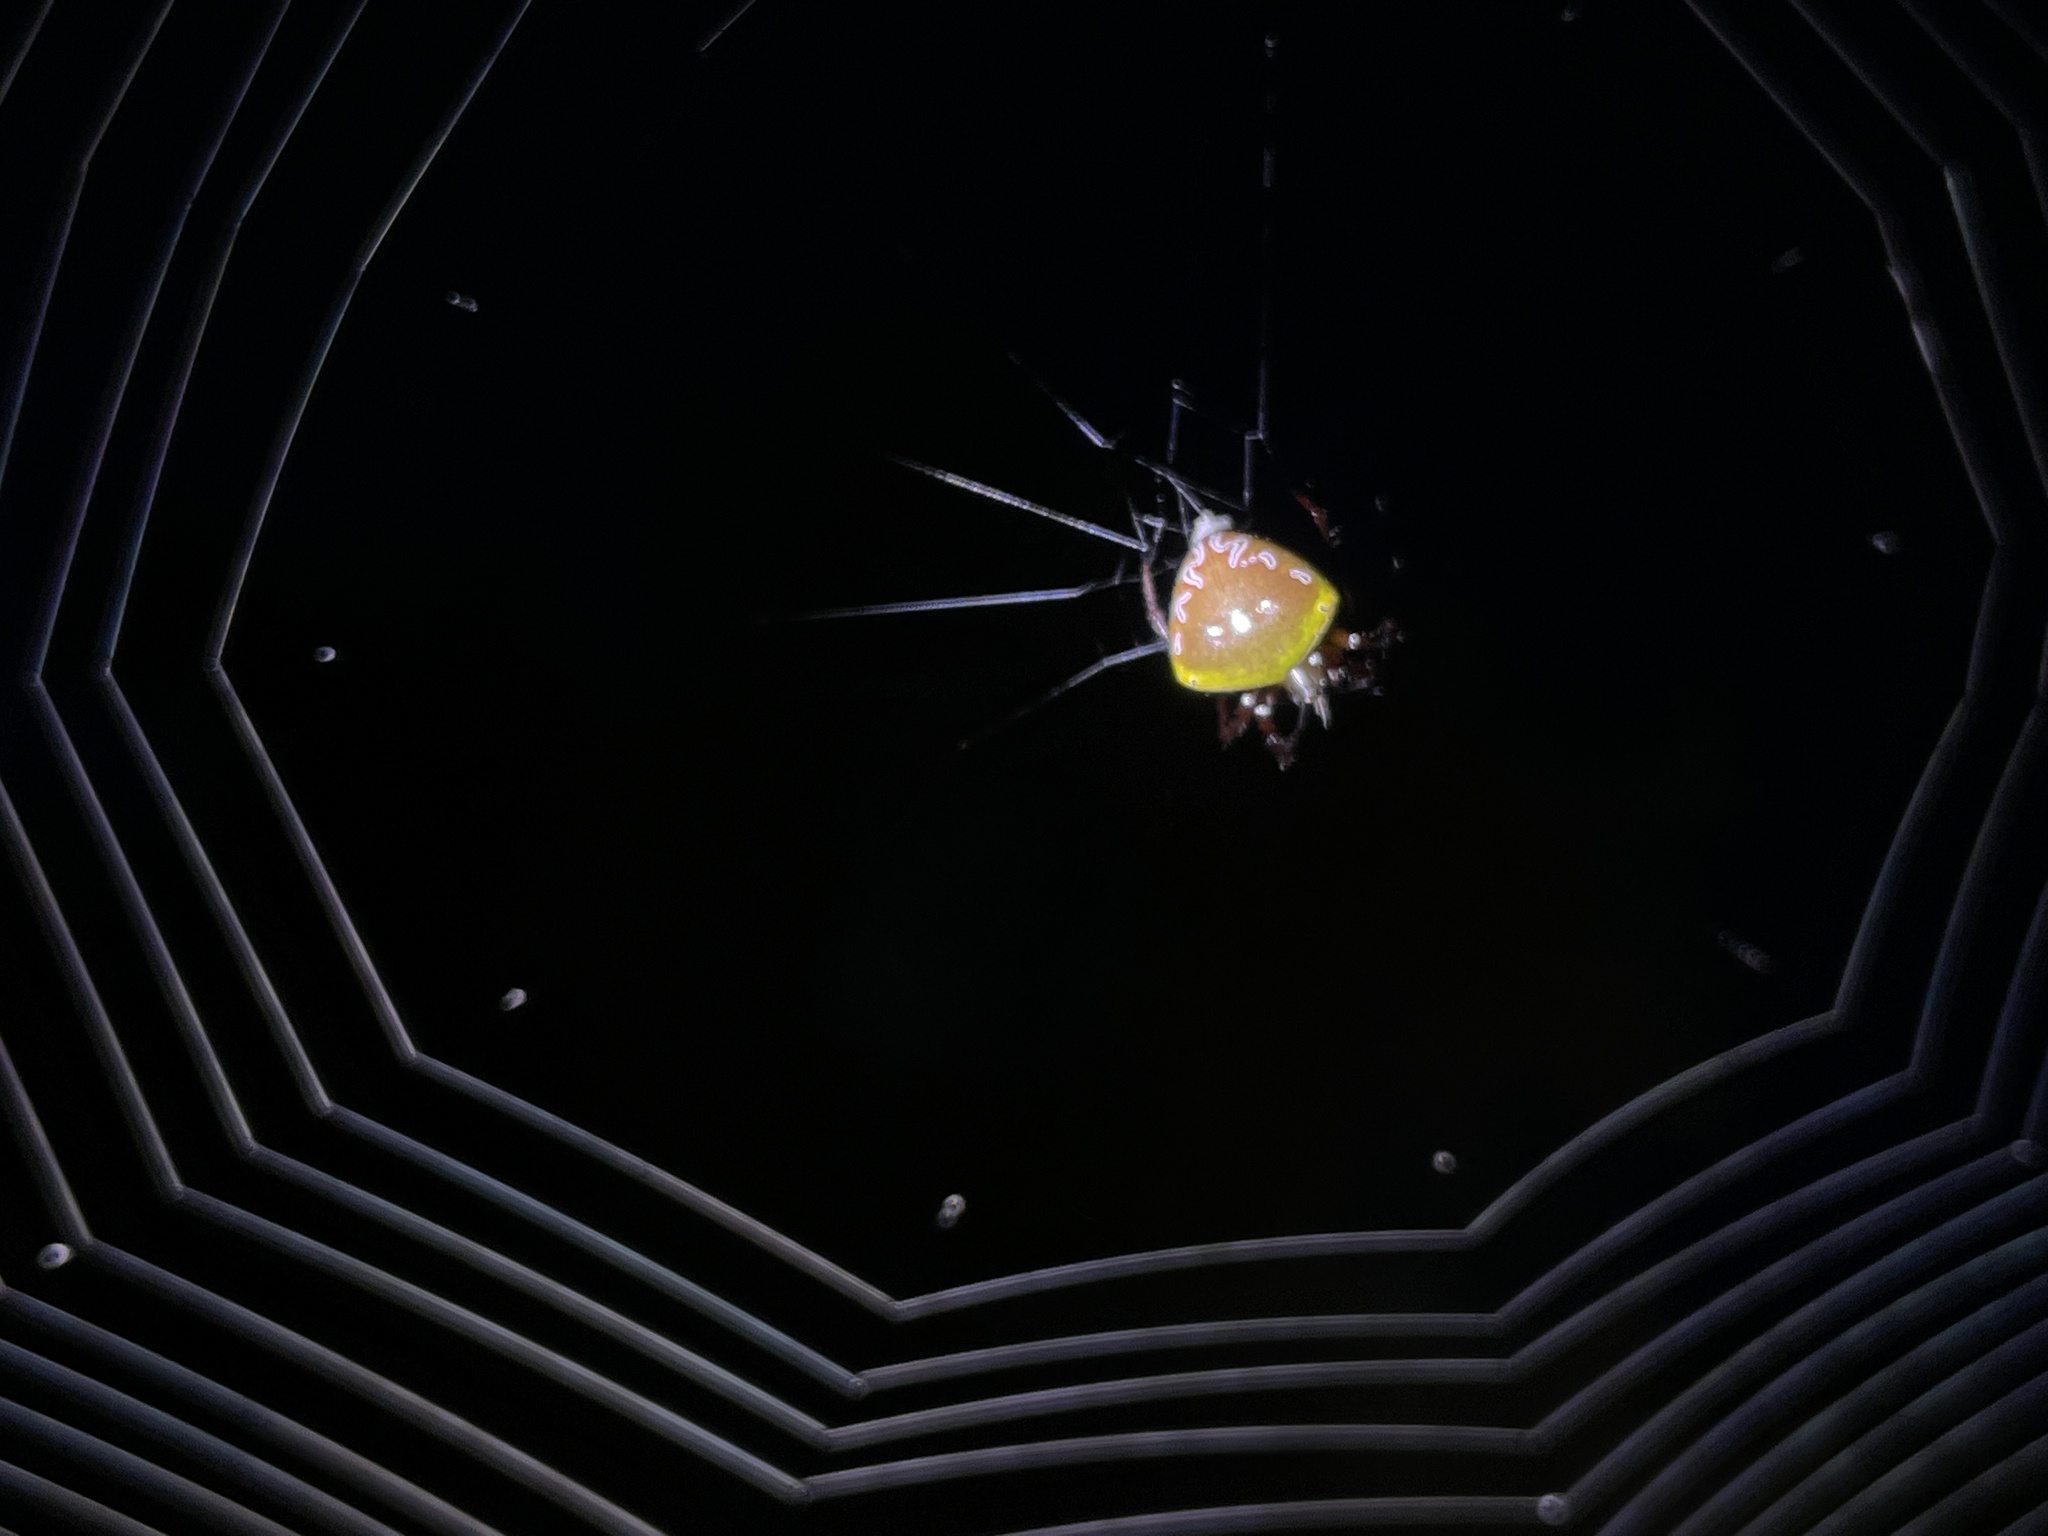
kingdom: Animalia
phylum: Arthropoda
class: Arachnida
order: Araneae
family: Araneidae
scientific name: Araneidae
